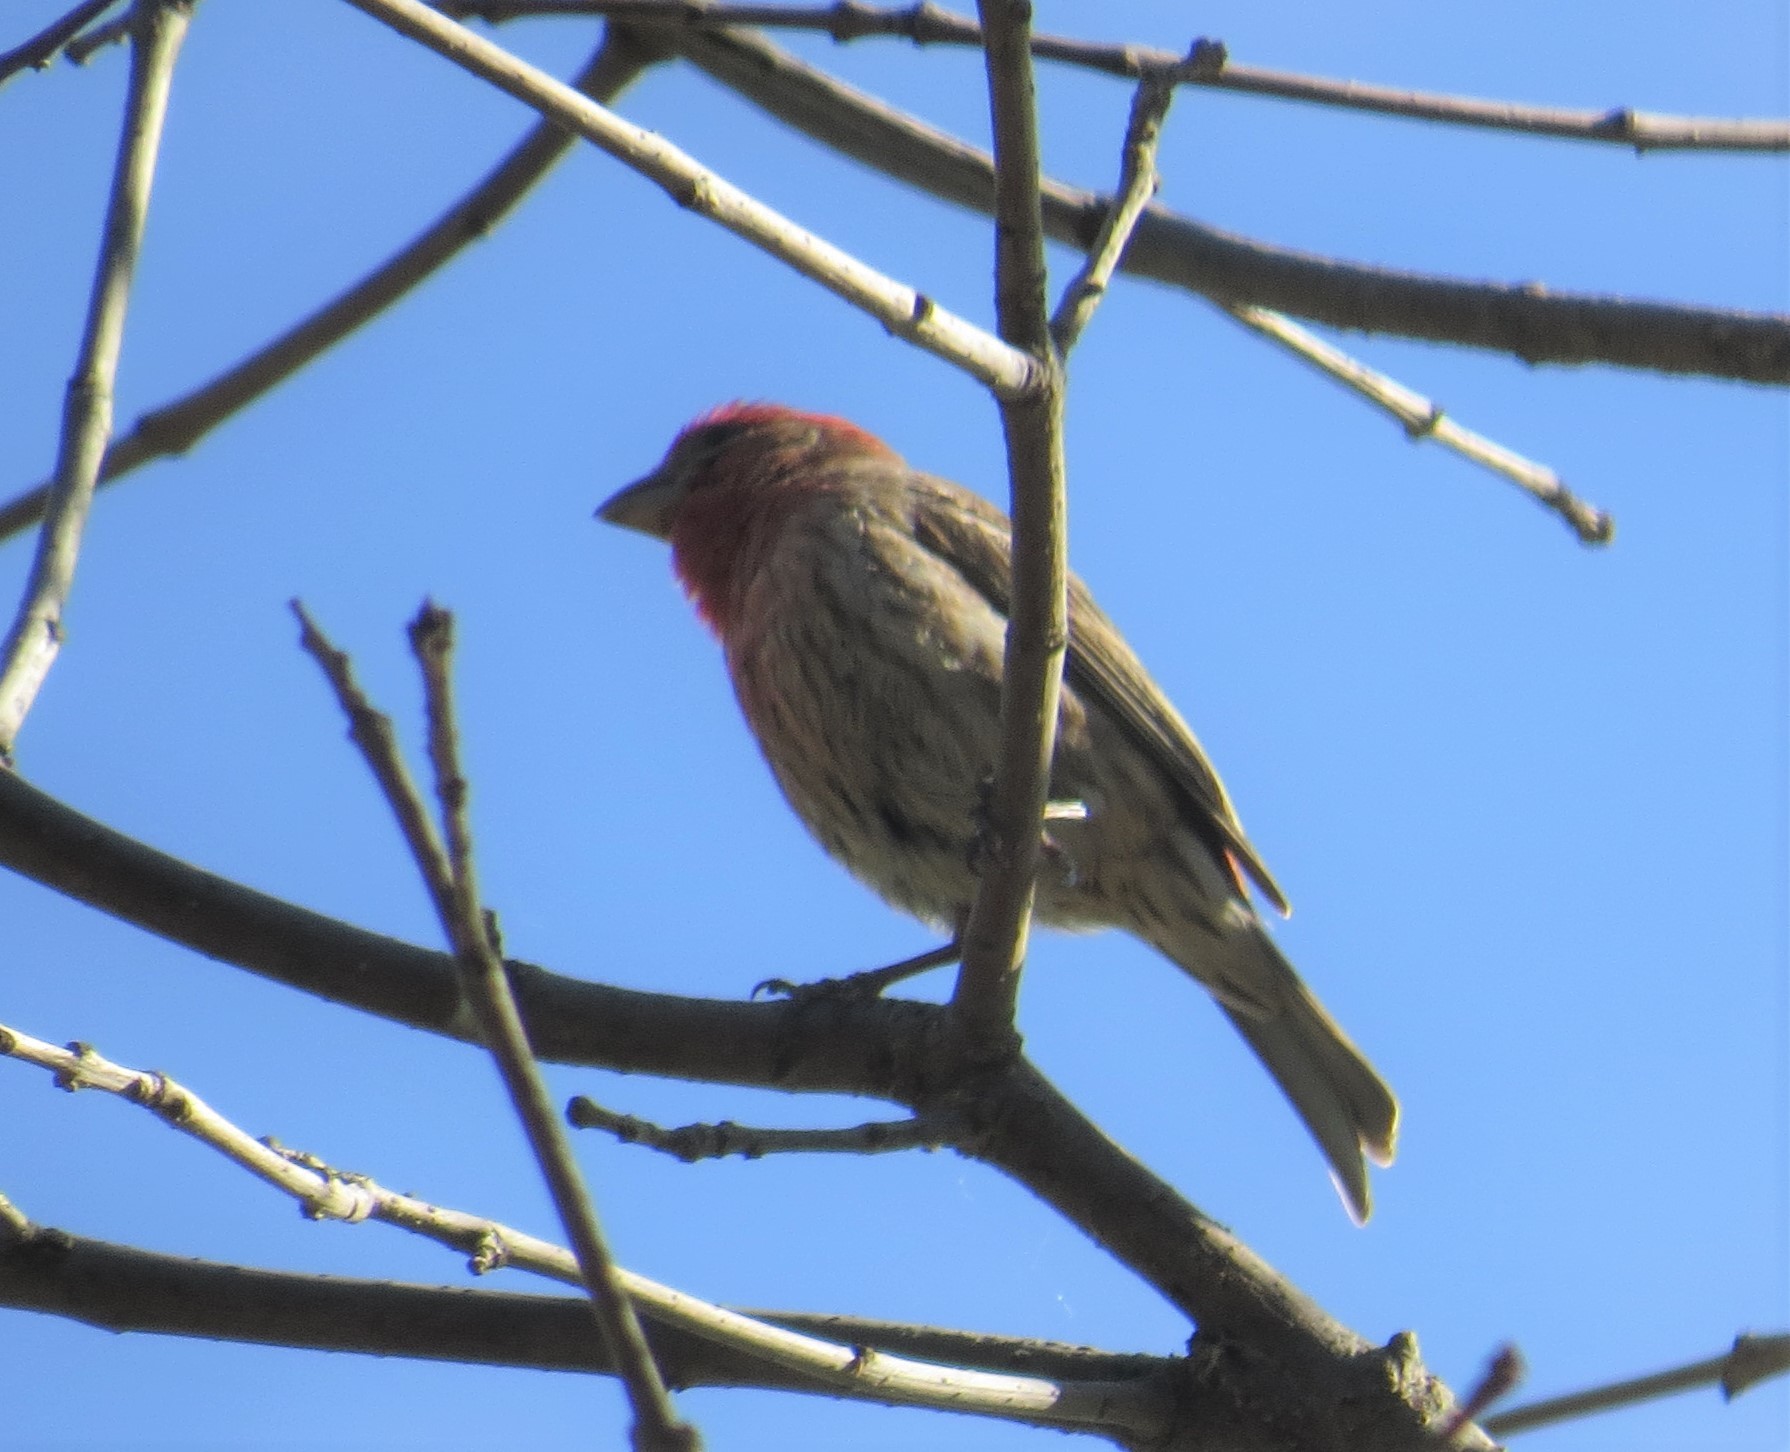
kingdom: Animalia
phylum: Chordata
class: Aves
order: Passeriformes
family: Fringillidae
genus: Haemorhous
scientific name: Haemorhous mexicanus
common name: House finch
